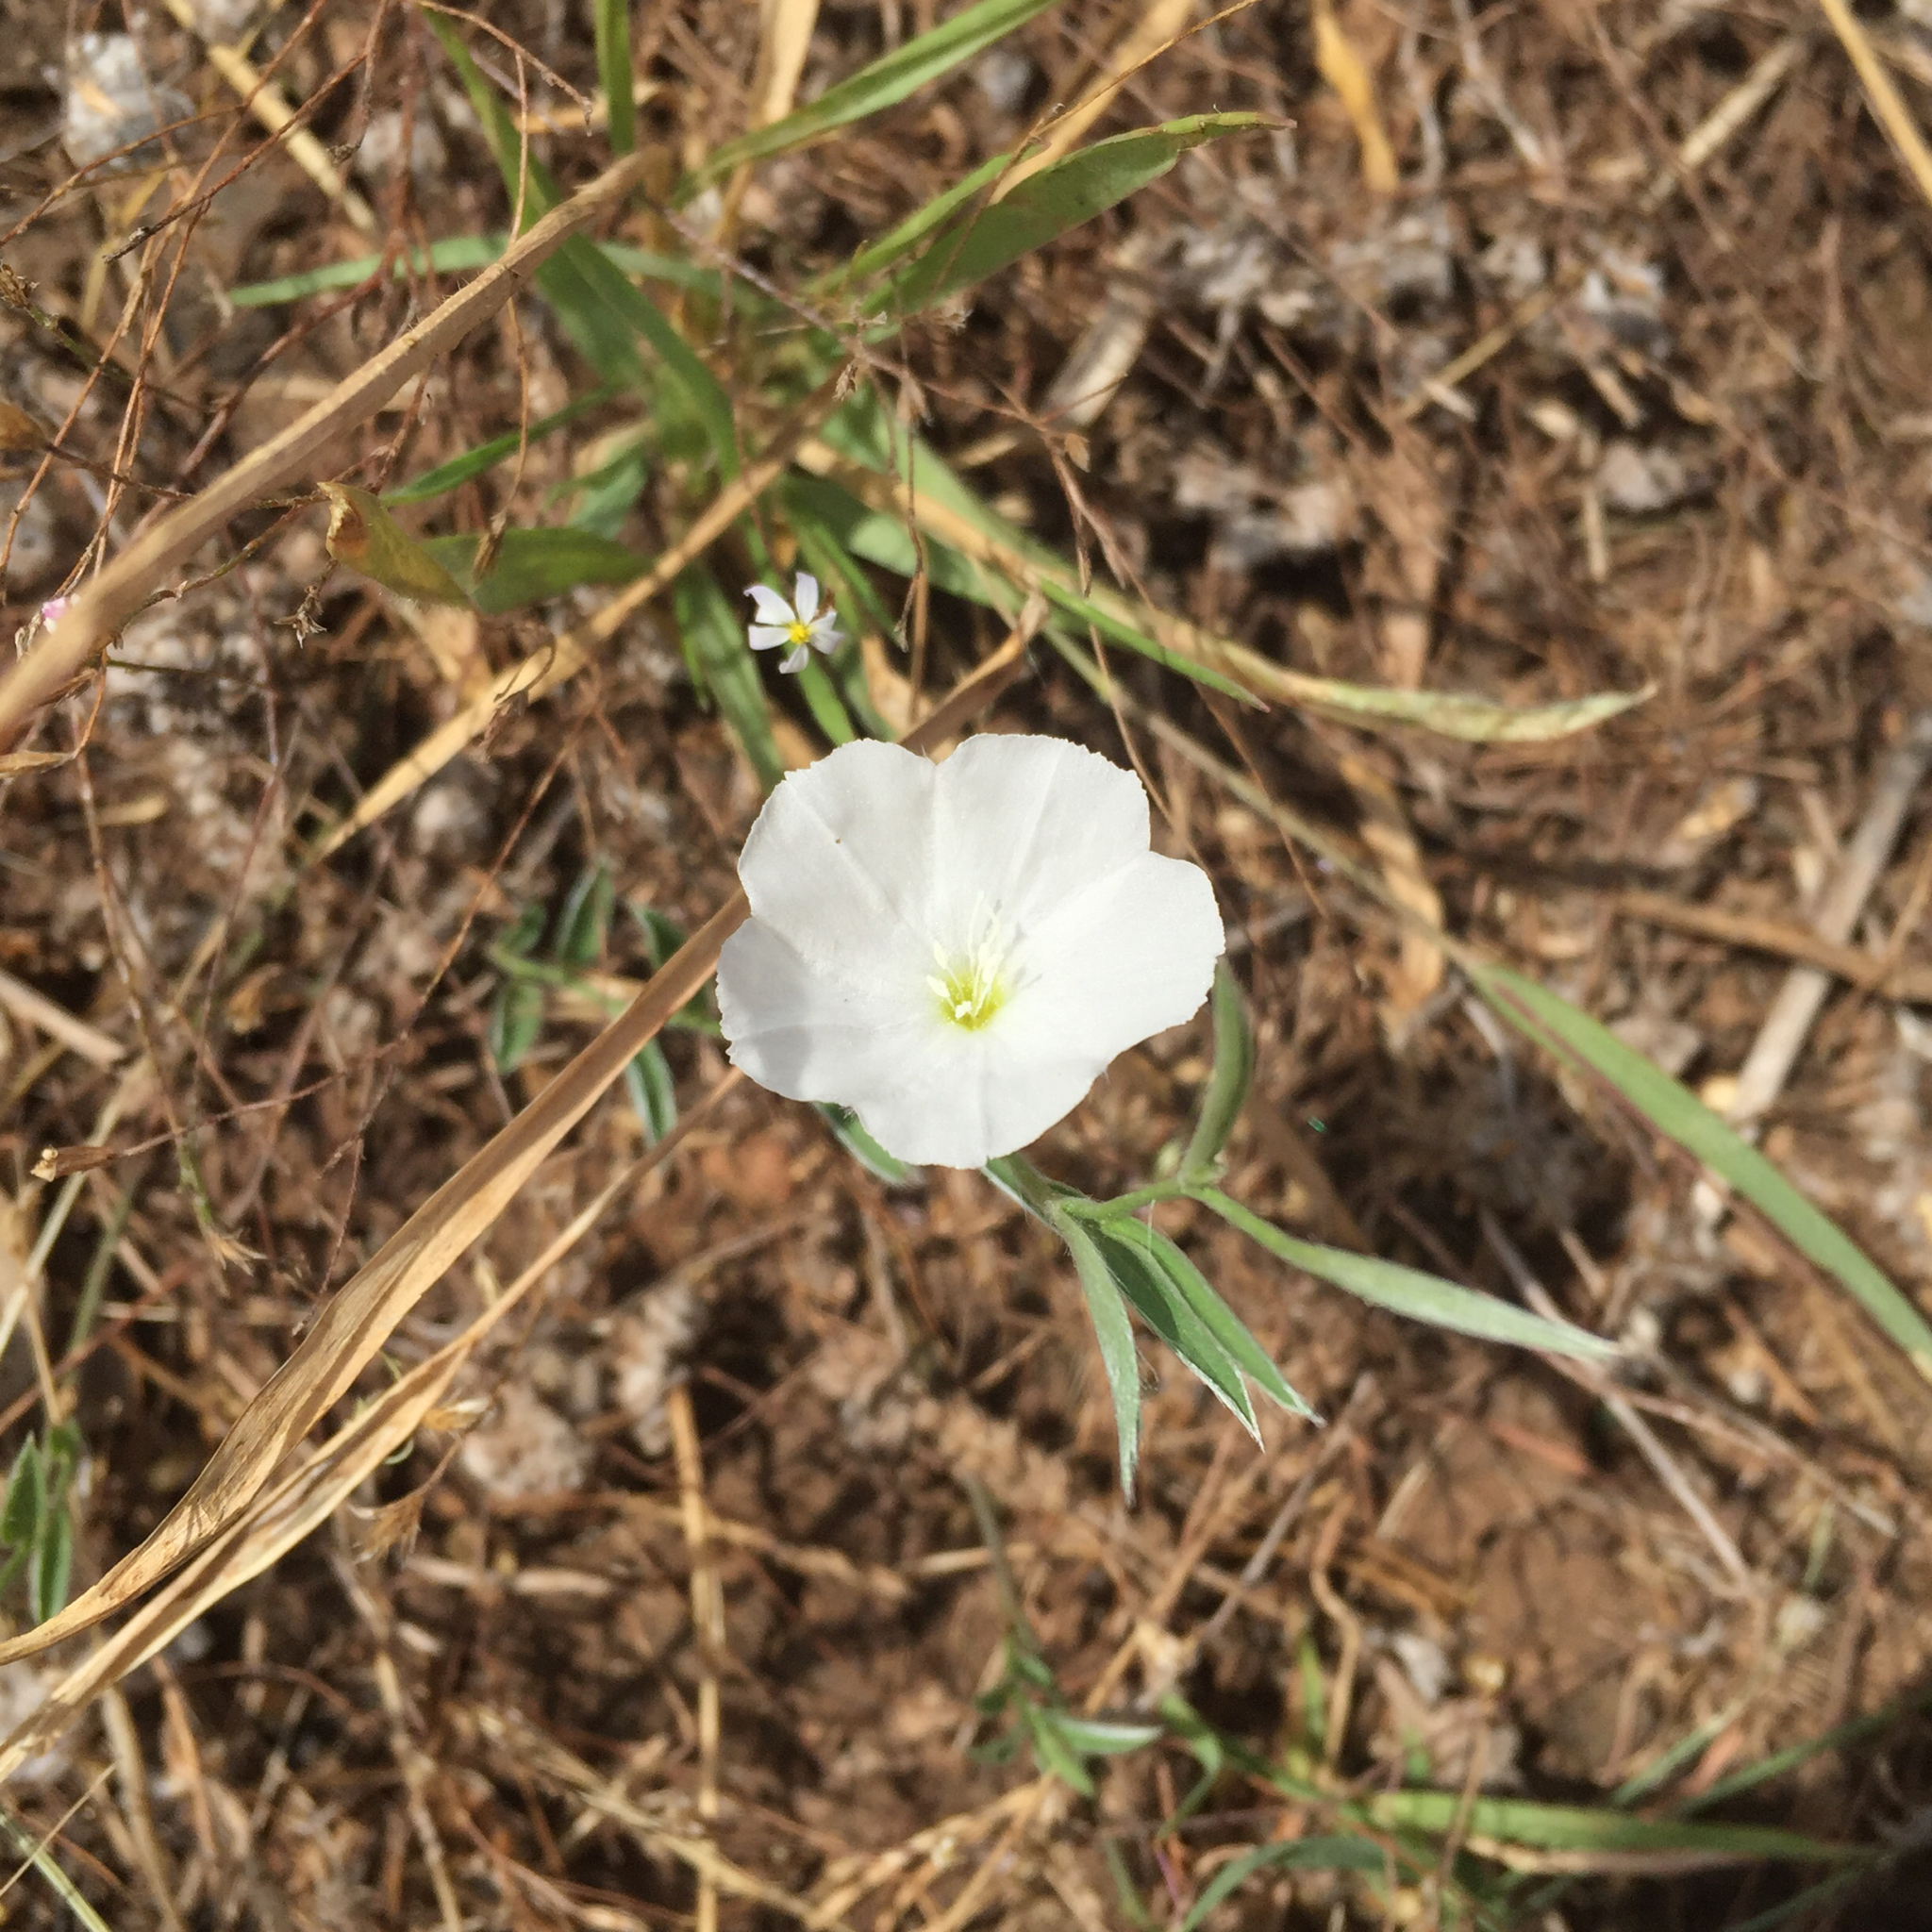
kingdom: Plantae
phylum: Tracheophyta
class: Magnoliopsida
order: Solanales
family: Convolvulaceae
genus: Evolvulus
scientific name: Evolvulus sericeus
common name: Blue dots
